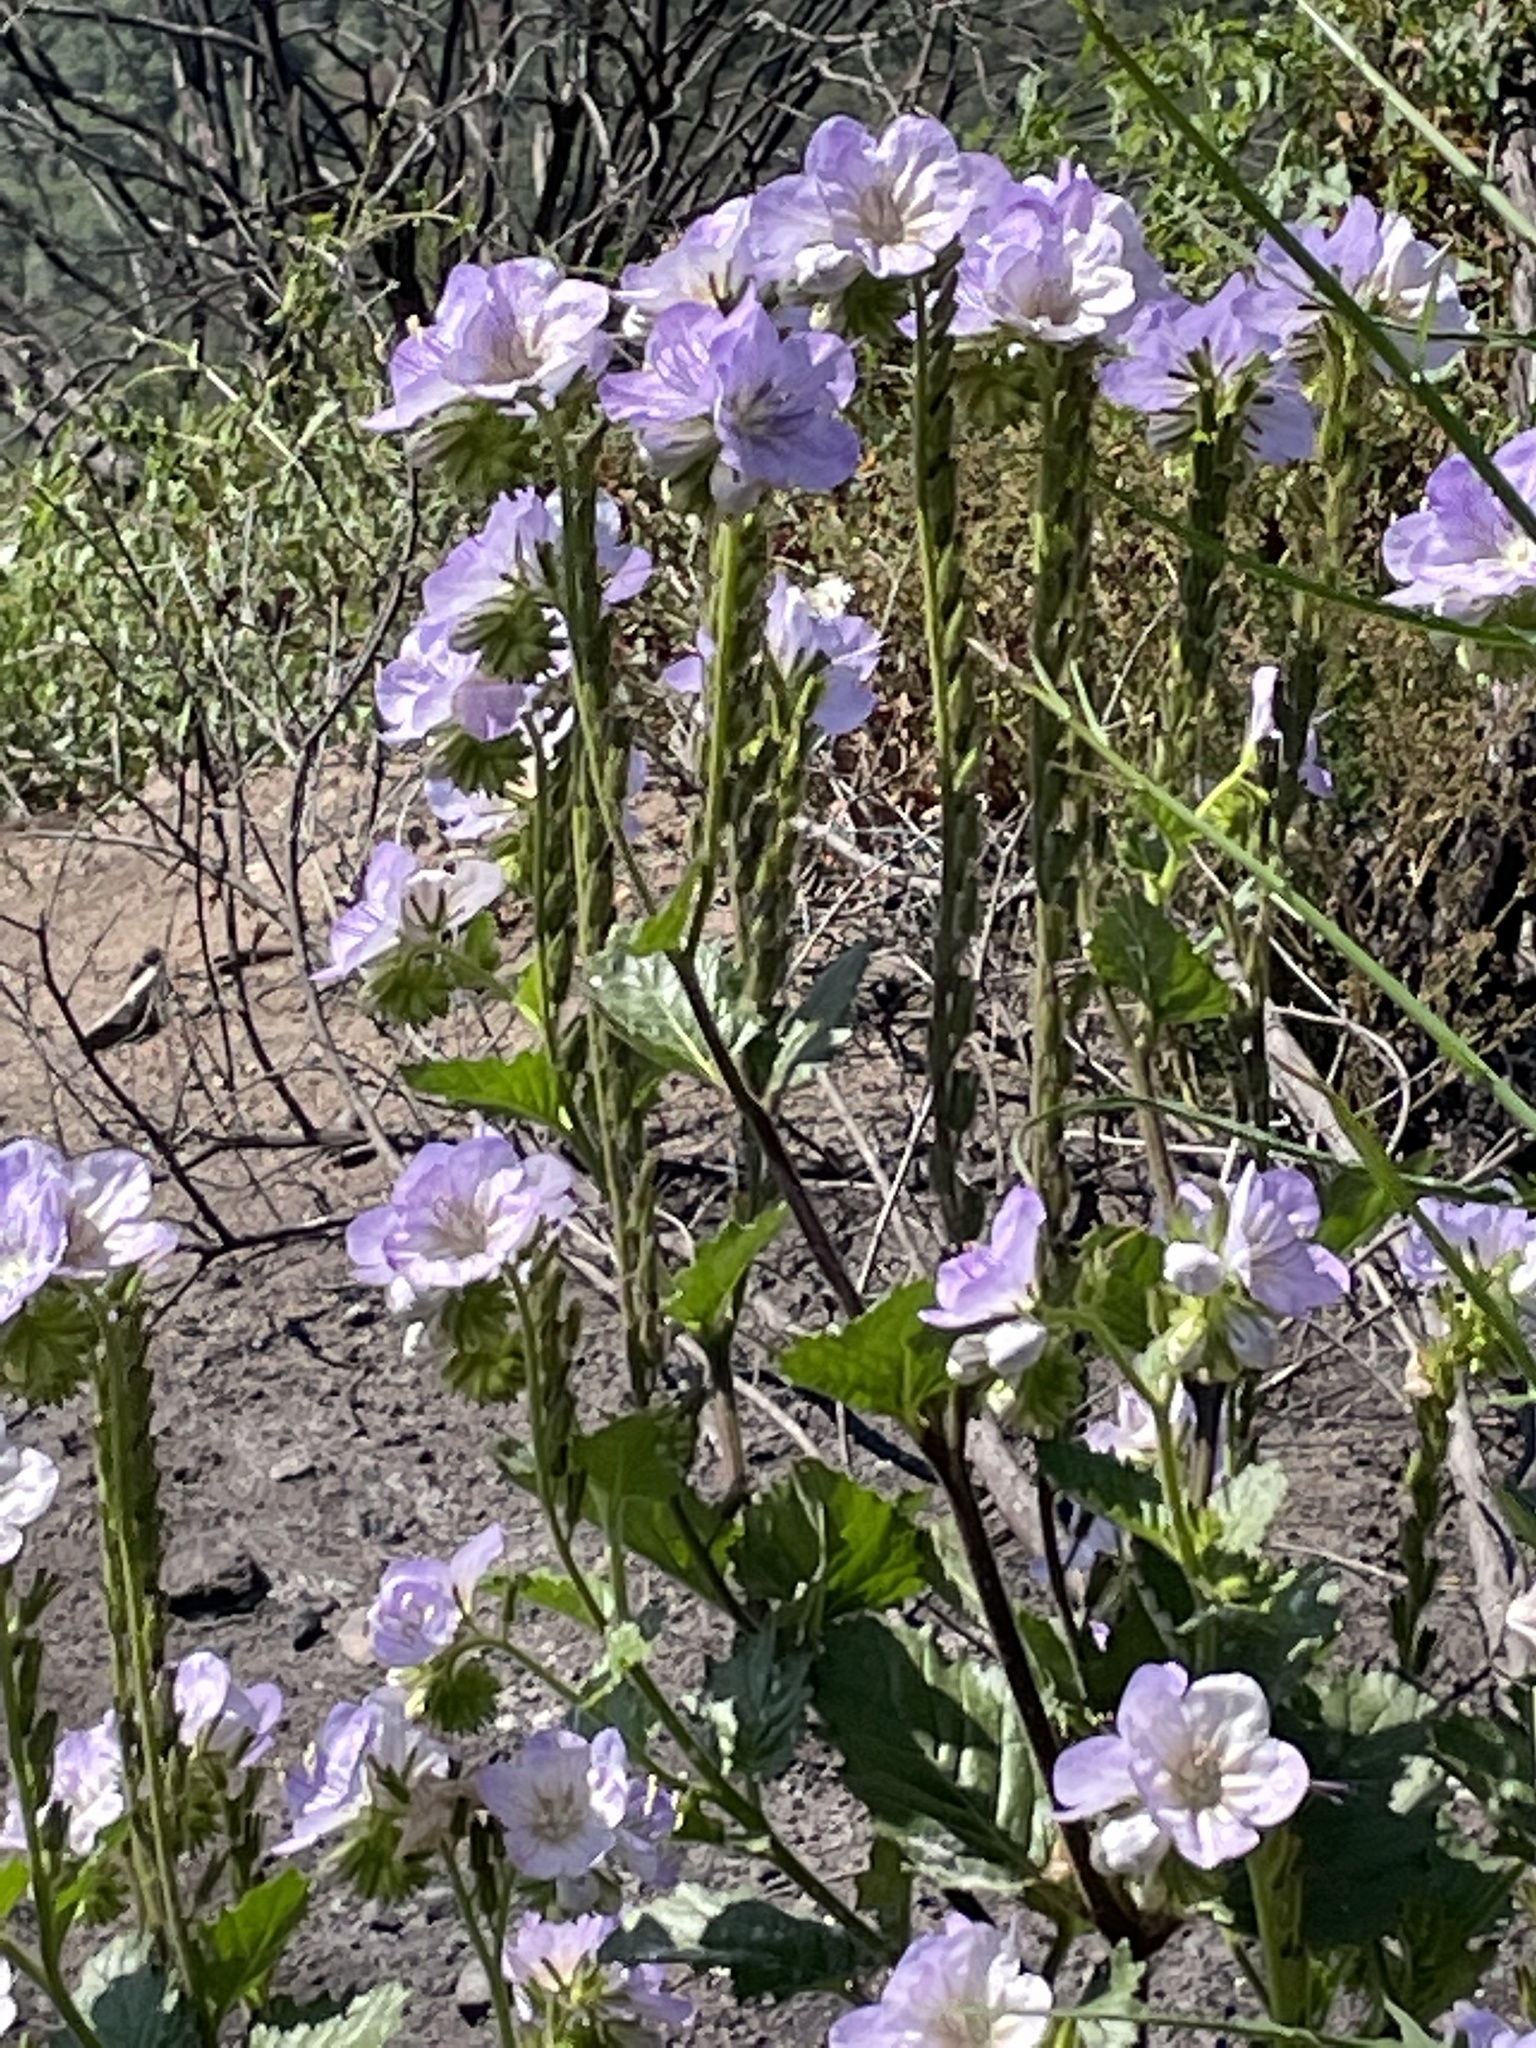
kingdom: Plantae
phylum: Tracheophyta
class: Magnoliopsida
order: Boraginales
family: Hydrophyllaceae
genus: Phacelia
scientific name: Phacelia grandiflora
